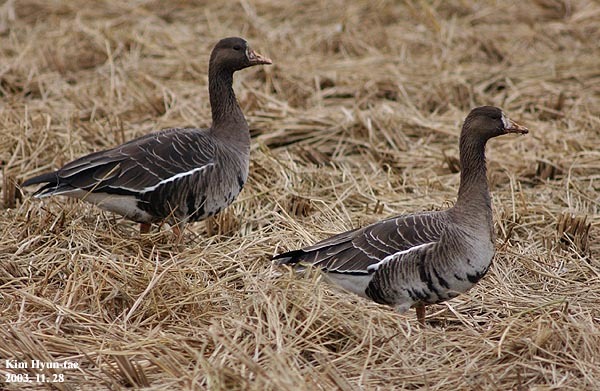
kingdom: Animalia
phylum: Chordata
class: Aves
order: Anseriformes
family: Anatidae
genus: Anser
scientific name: Anser albifrons
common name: Greater white-fronted goose
